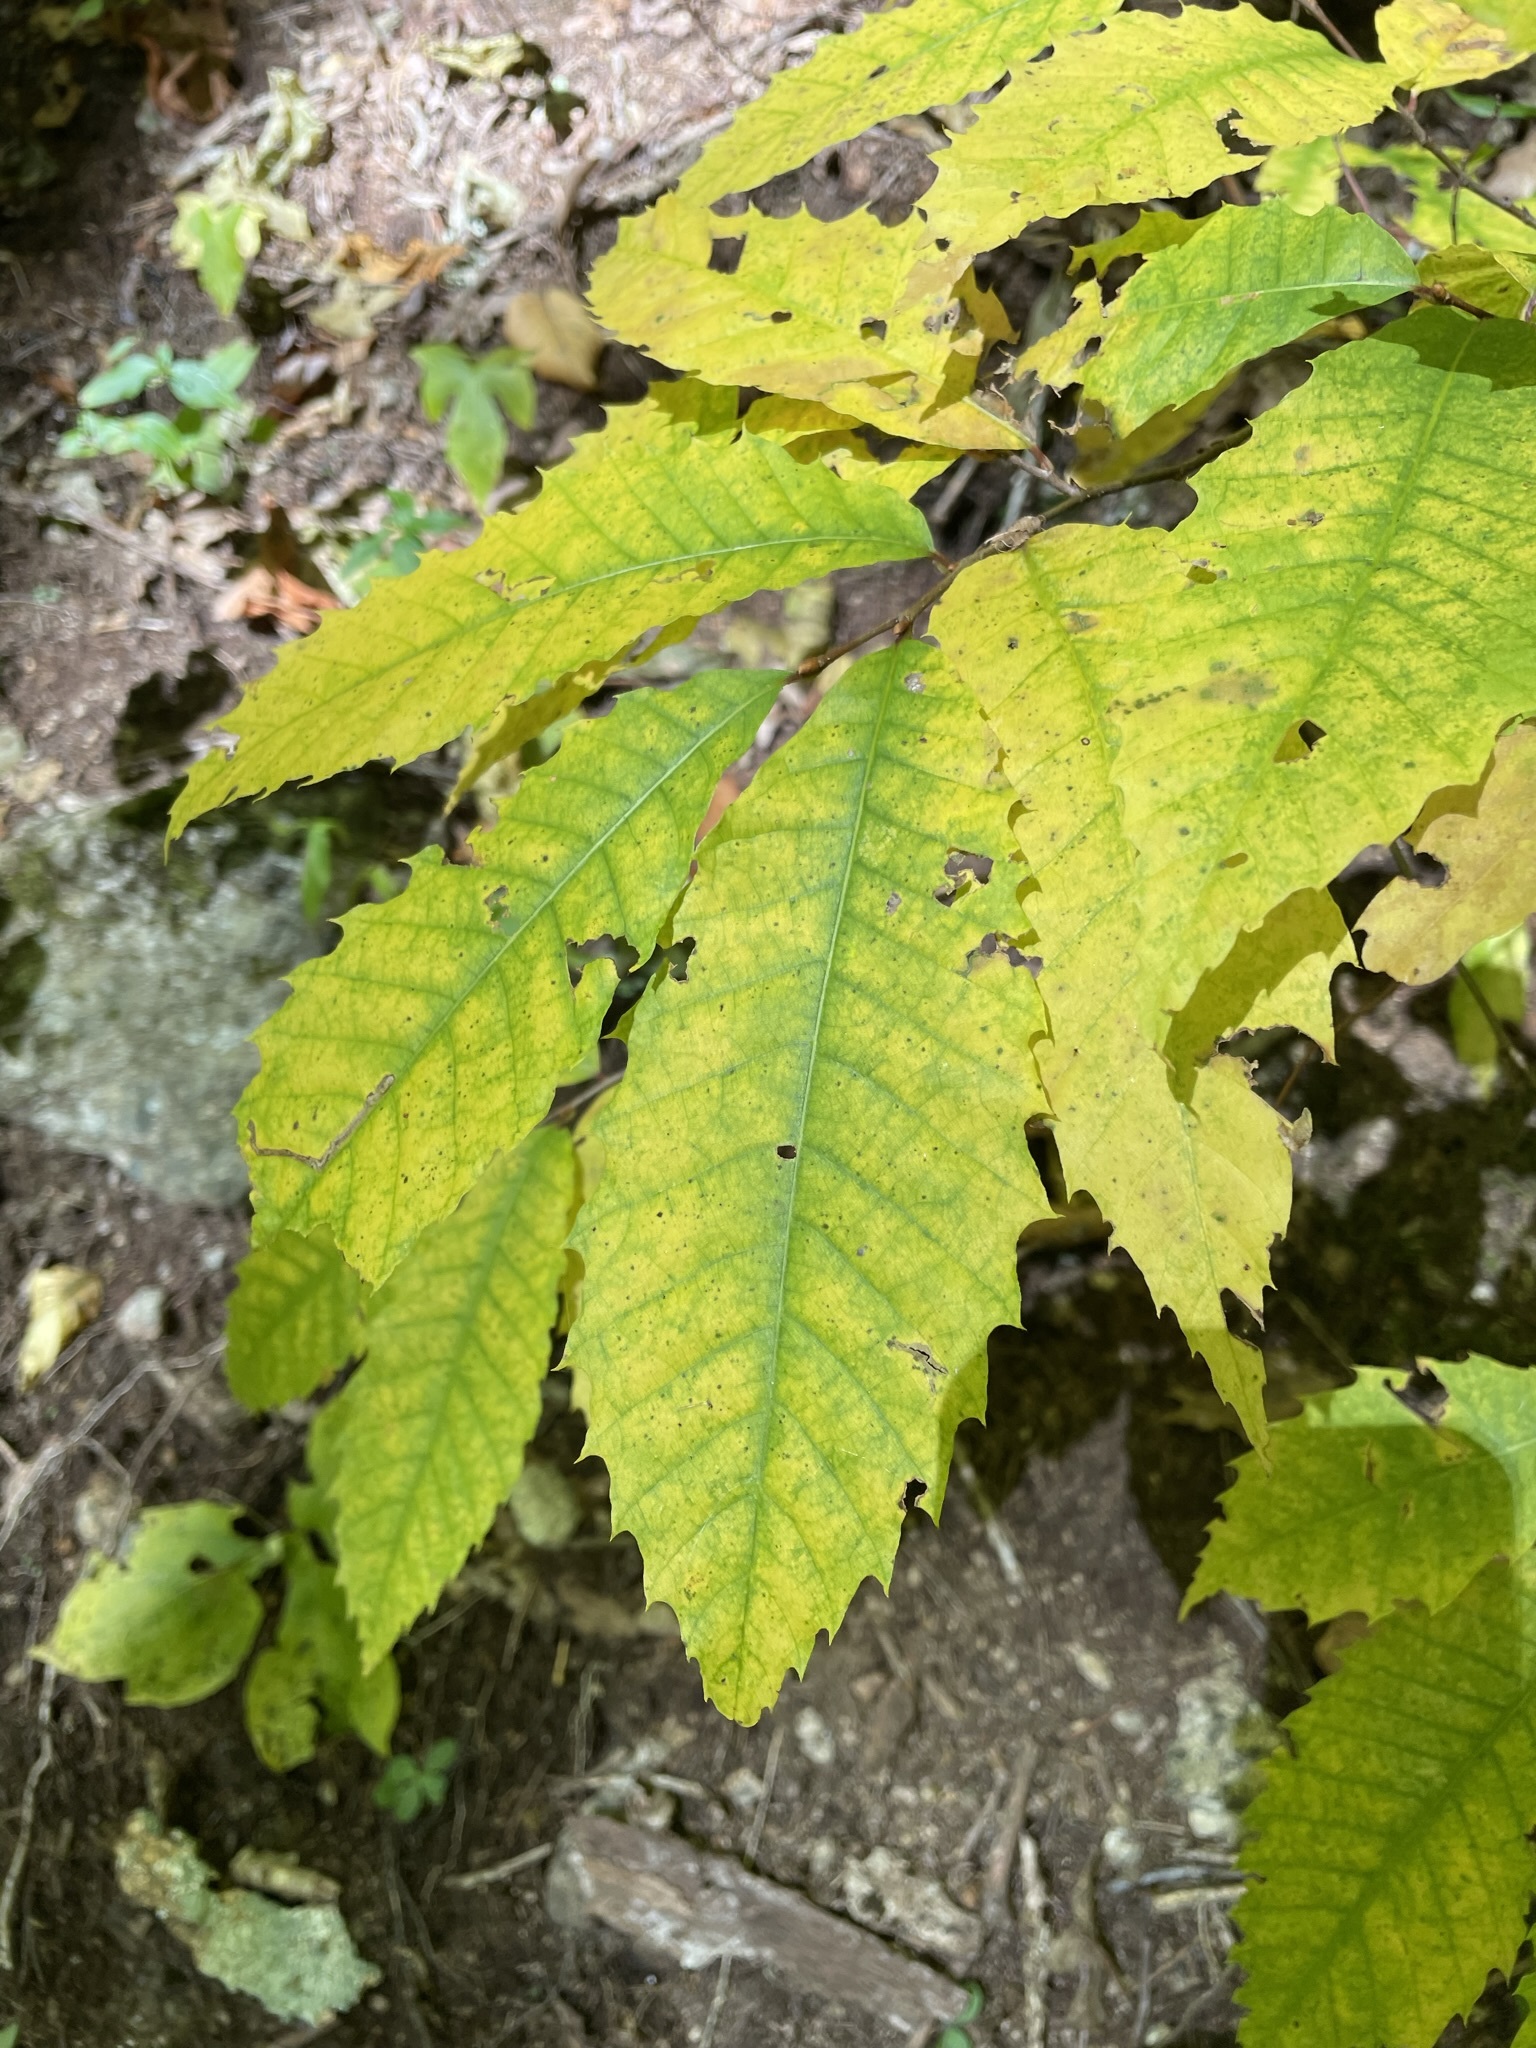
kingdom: Plantae
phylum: Tracheophyta
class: Magnoliopsida
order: Fagales
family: Fagaceae
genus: Castanea
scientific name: Castanea dentata
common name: American chestnut
